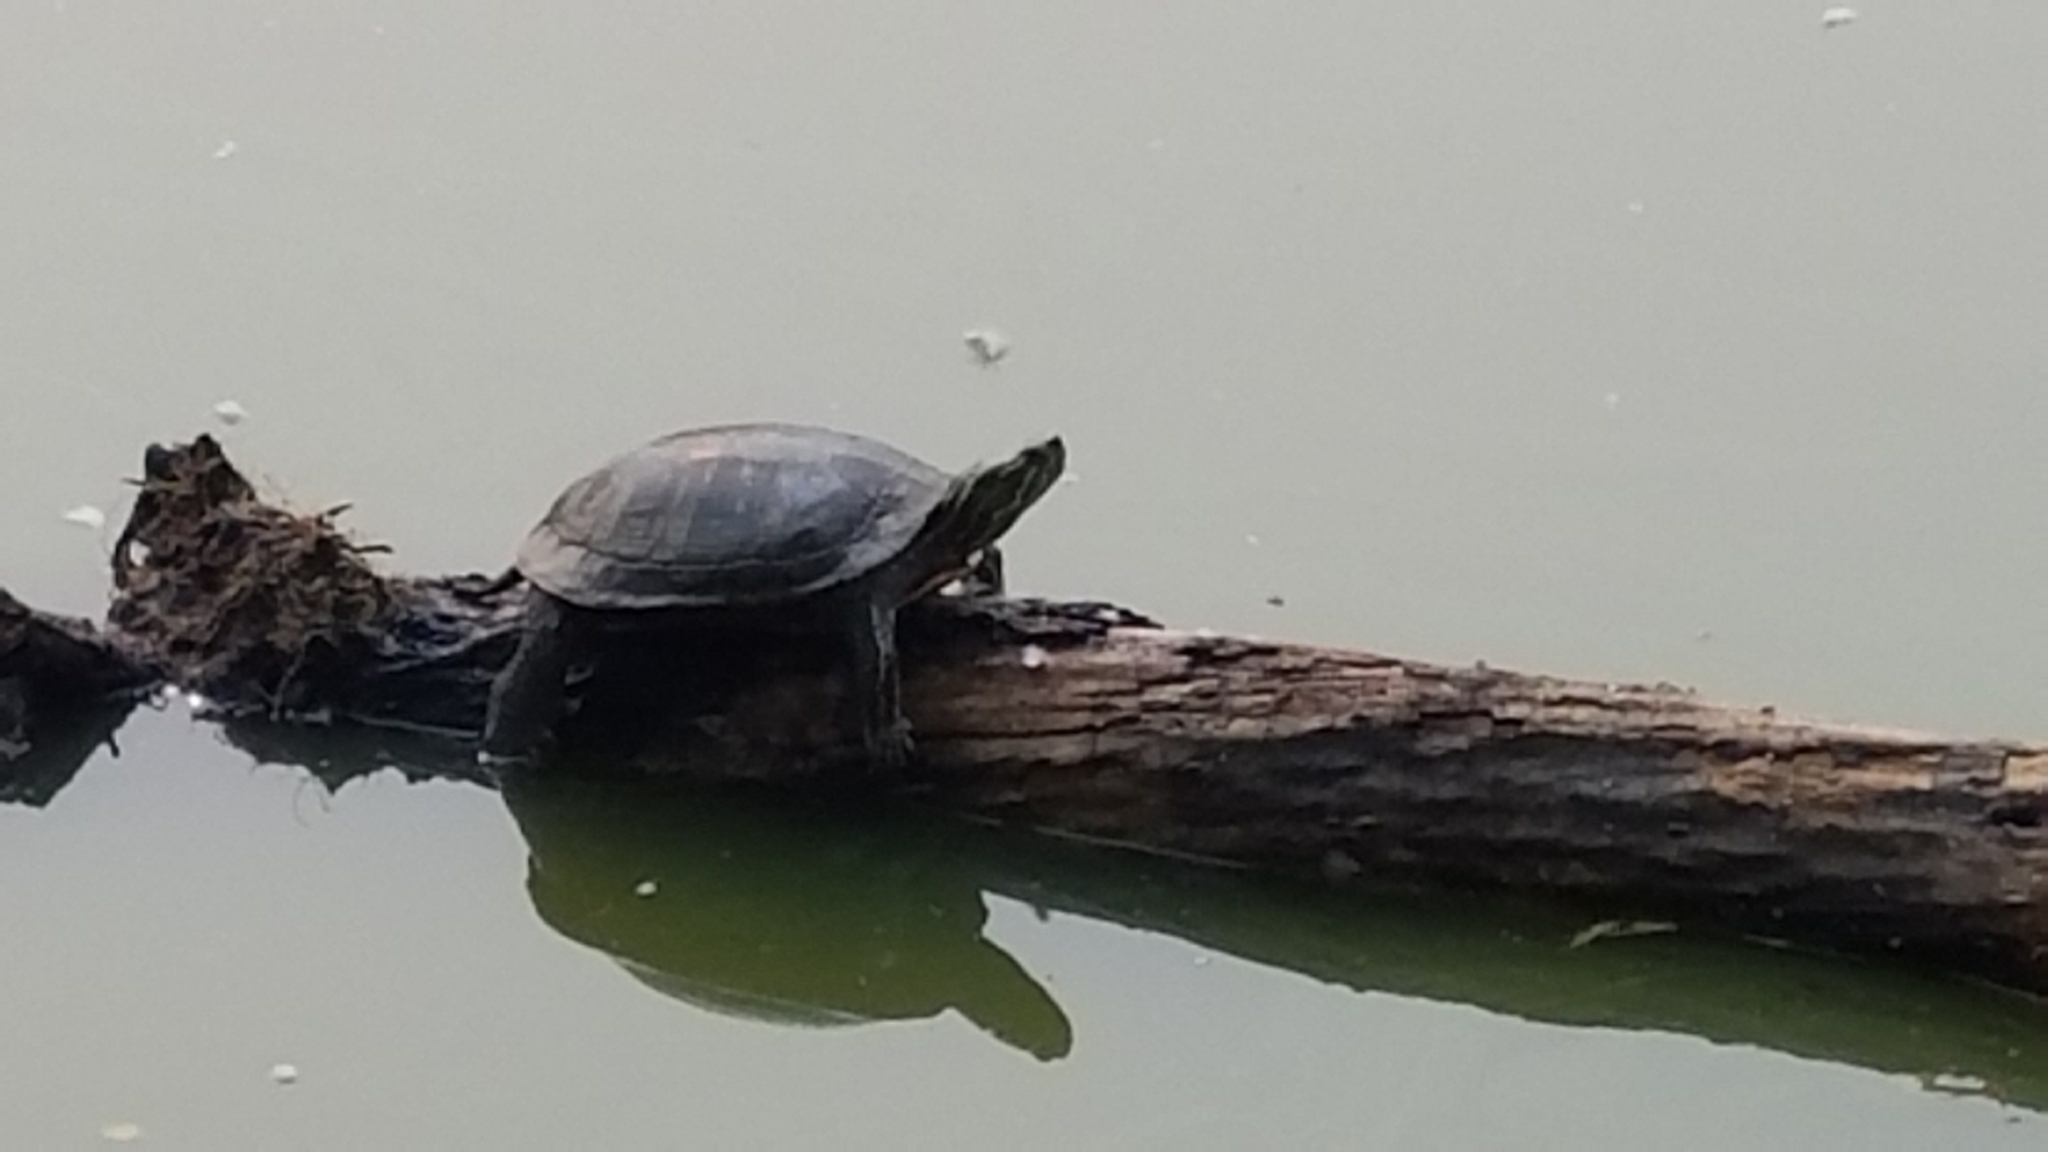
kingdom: Animalia
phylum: Chordata
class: Testudines
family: Emydidae
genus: Chrysemys
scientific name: Chrysemys picta
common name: Painted turtle
